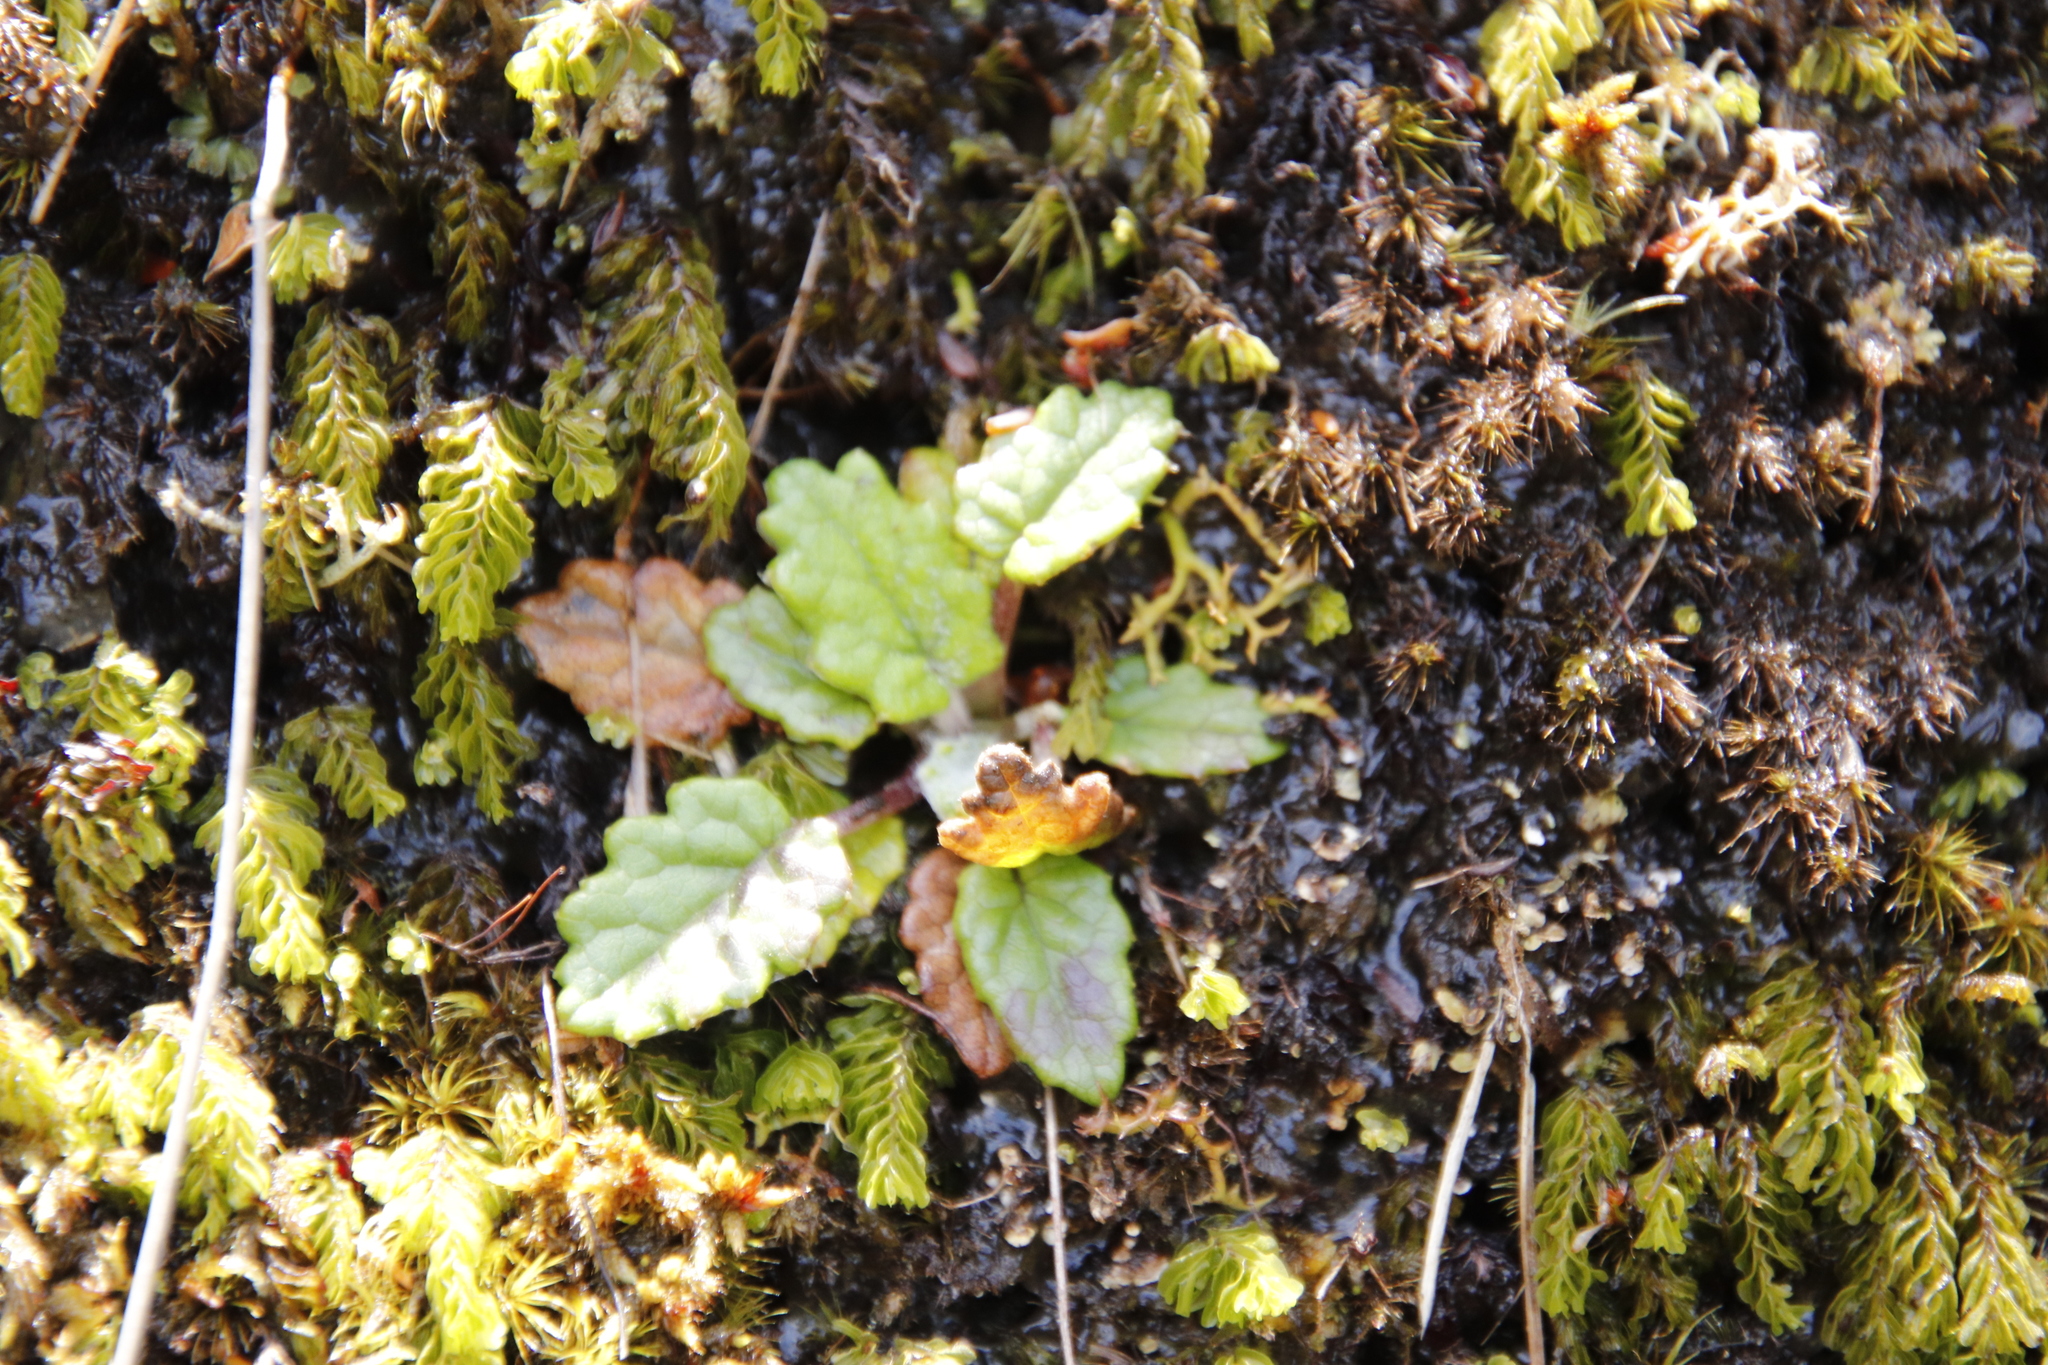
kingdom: Plantae
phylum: Tracheophyta
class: Magnoliopsida
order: Apiales
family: Apiaceae
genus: Hermas
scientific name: Hermas capitata
